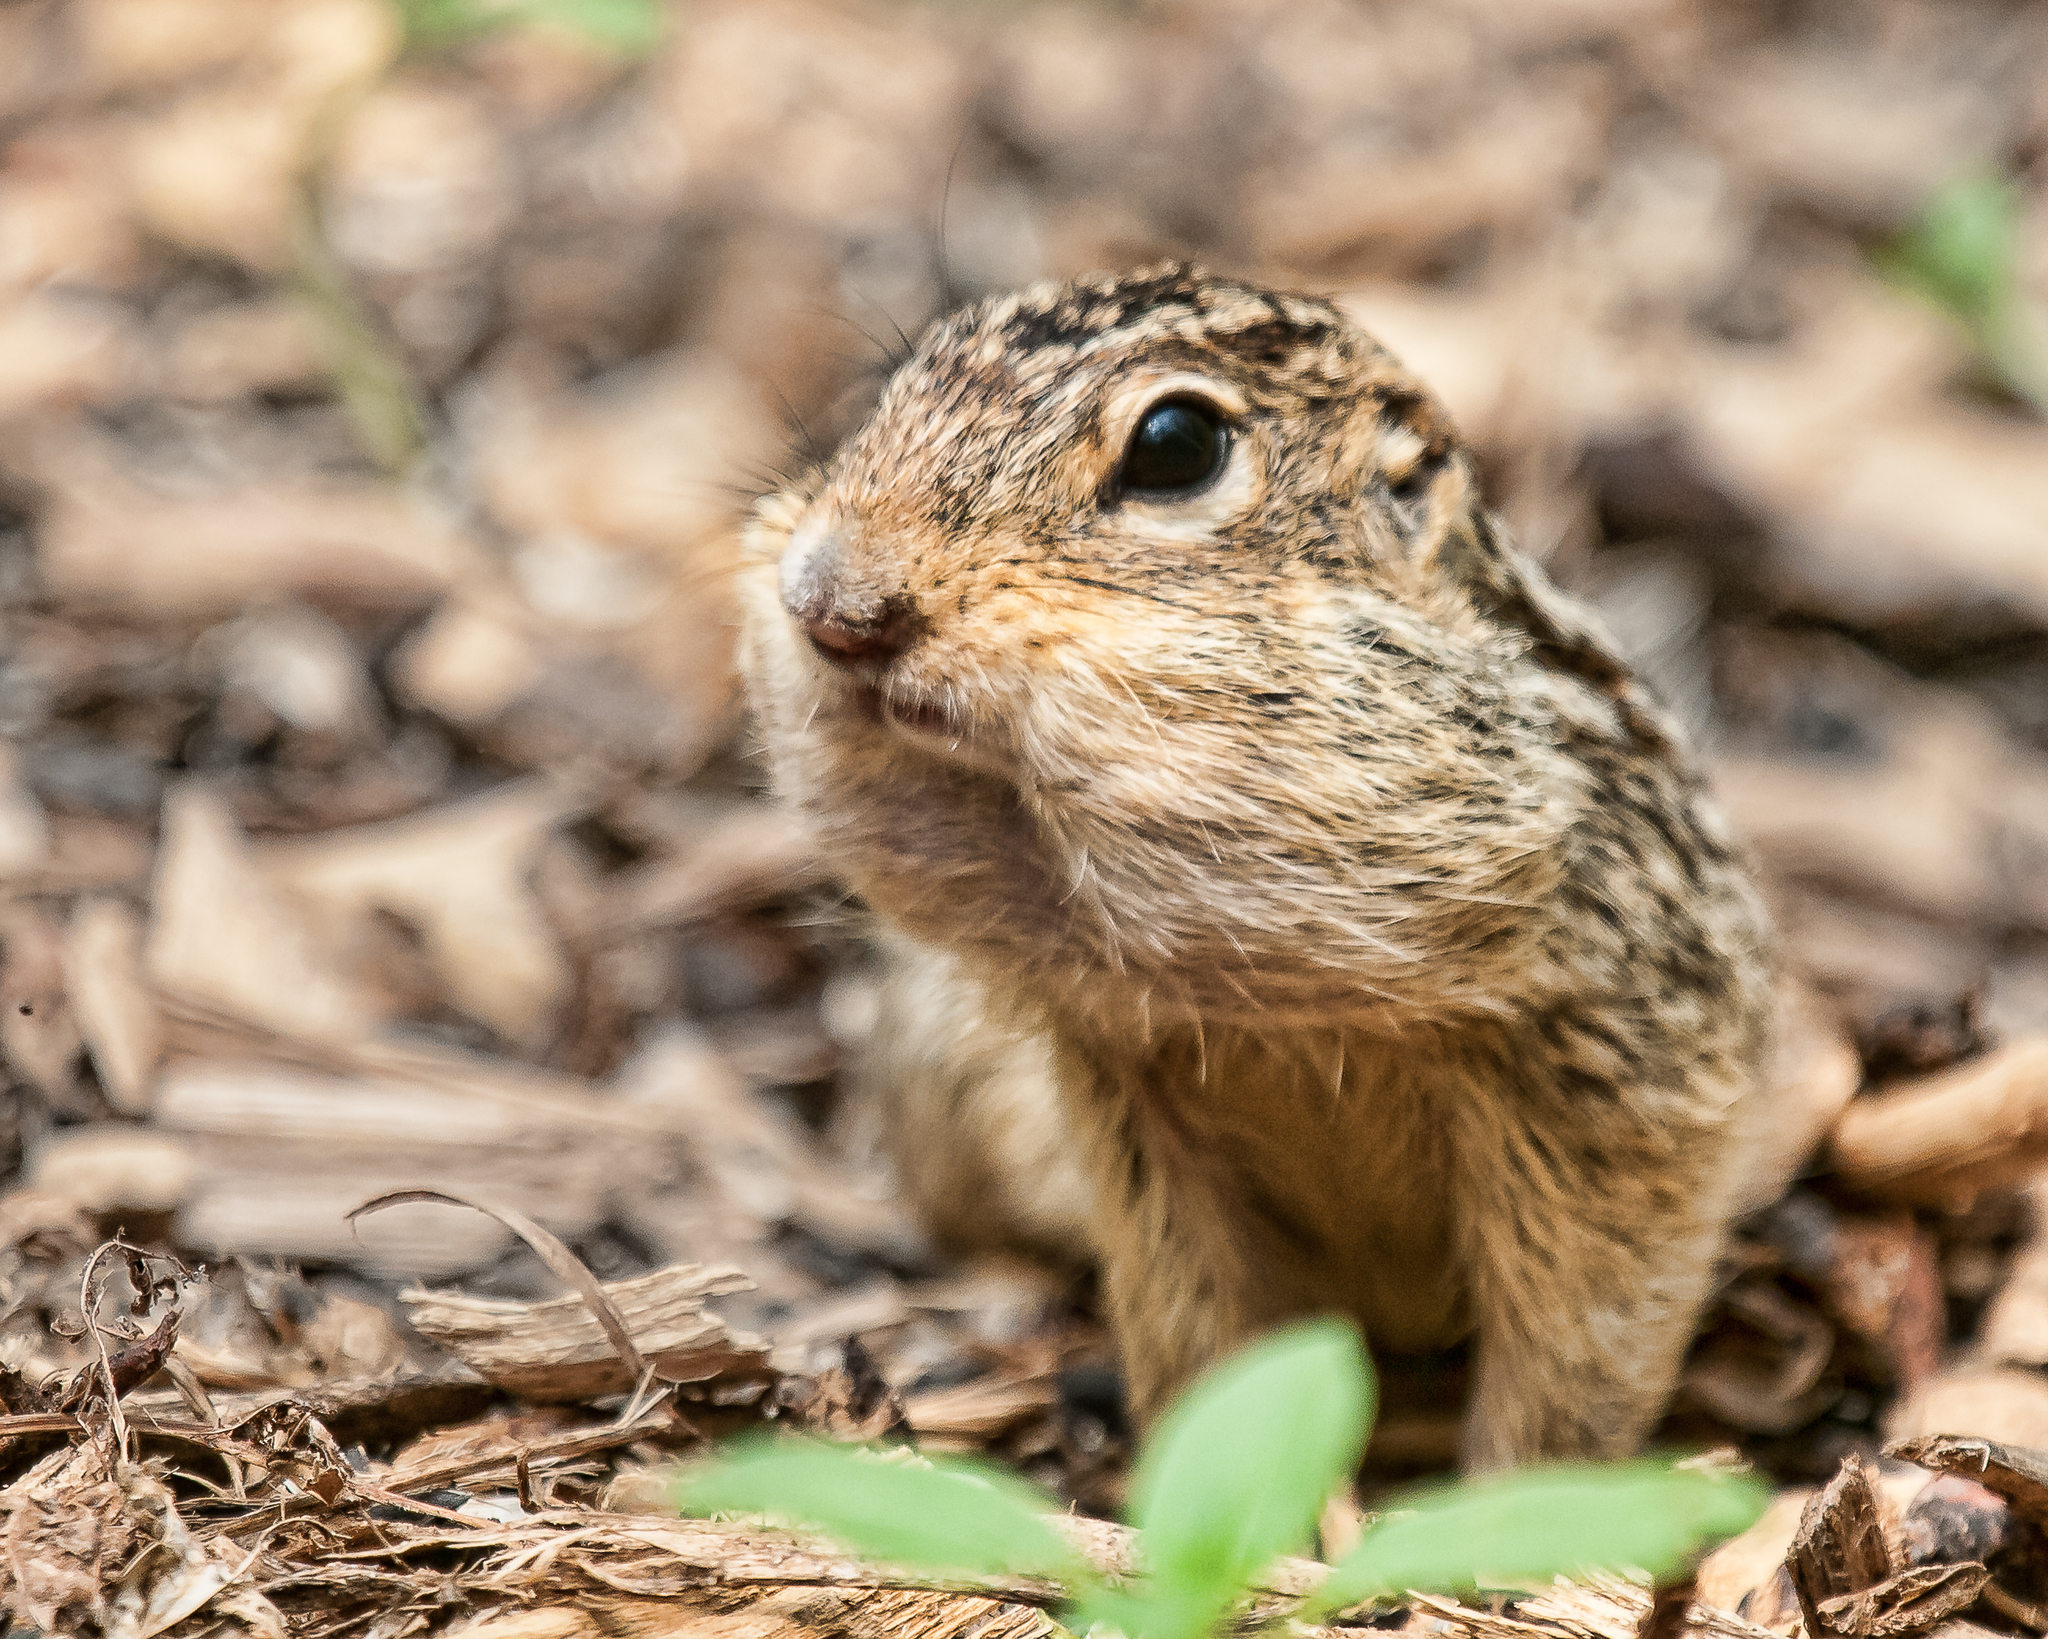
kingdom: Animalia
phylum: Chordata
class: Mammalia
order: Rodentia
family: Sciuridae
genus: Ictidomys
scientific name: Ictidomys tridecemlineatus
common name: Thirteen-lined ground squirrel
